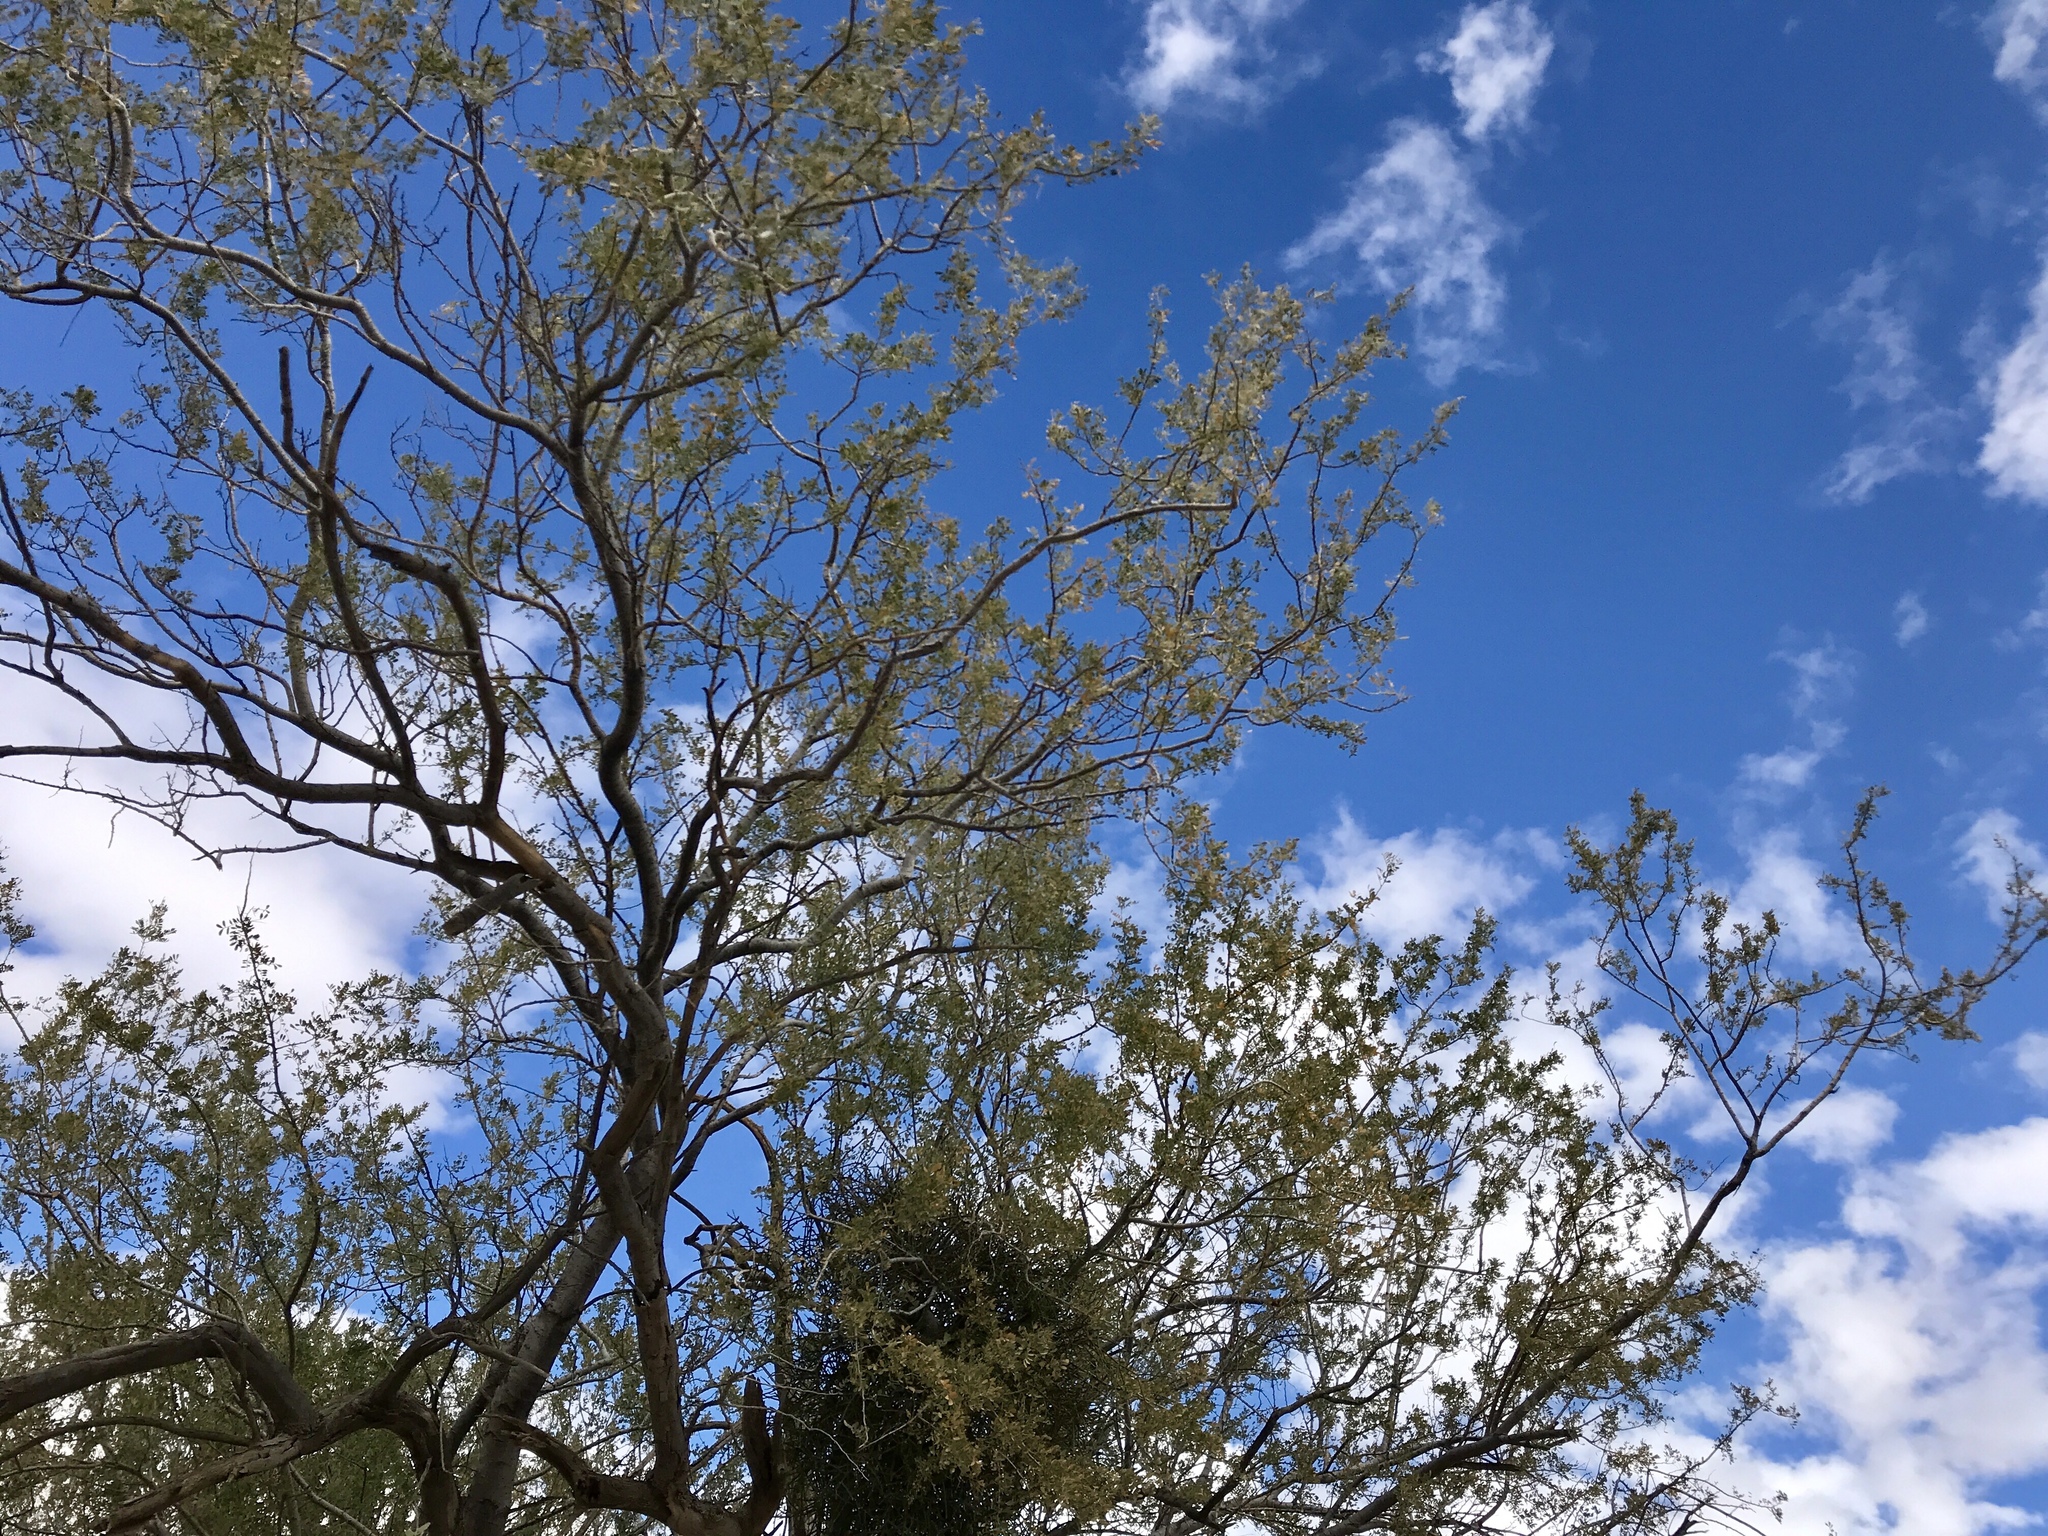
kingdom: Plantae
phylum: Tracheophyta
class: Magnoliopsida
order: Fabales
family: Fabaceae
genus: Olneya
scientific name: Olneya tesota
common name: Desert ironwood
